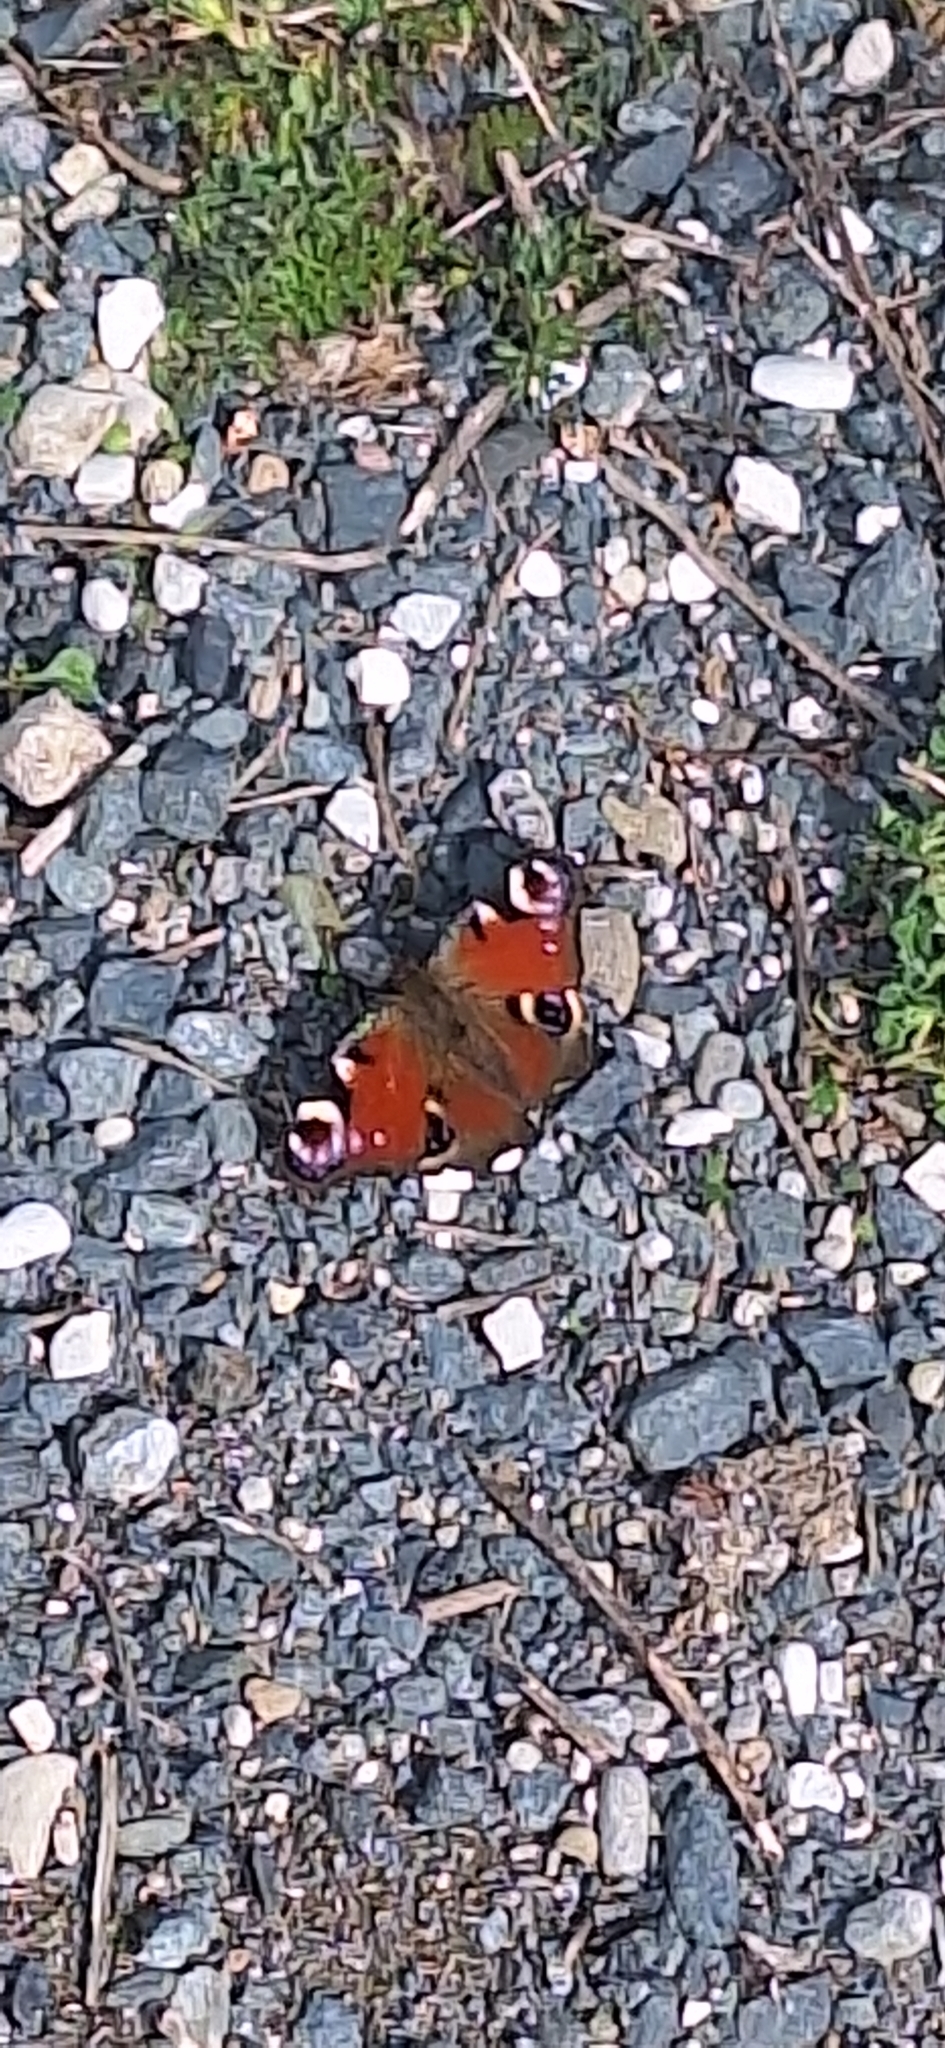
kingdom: Animalia
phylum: Arthropoda
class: Insecta
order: Lepidoptera
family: Nymphalidae
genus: Aglais
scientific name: Aglais io
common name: Peacock
